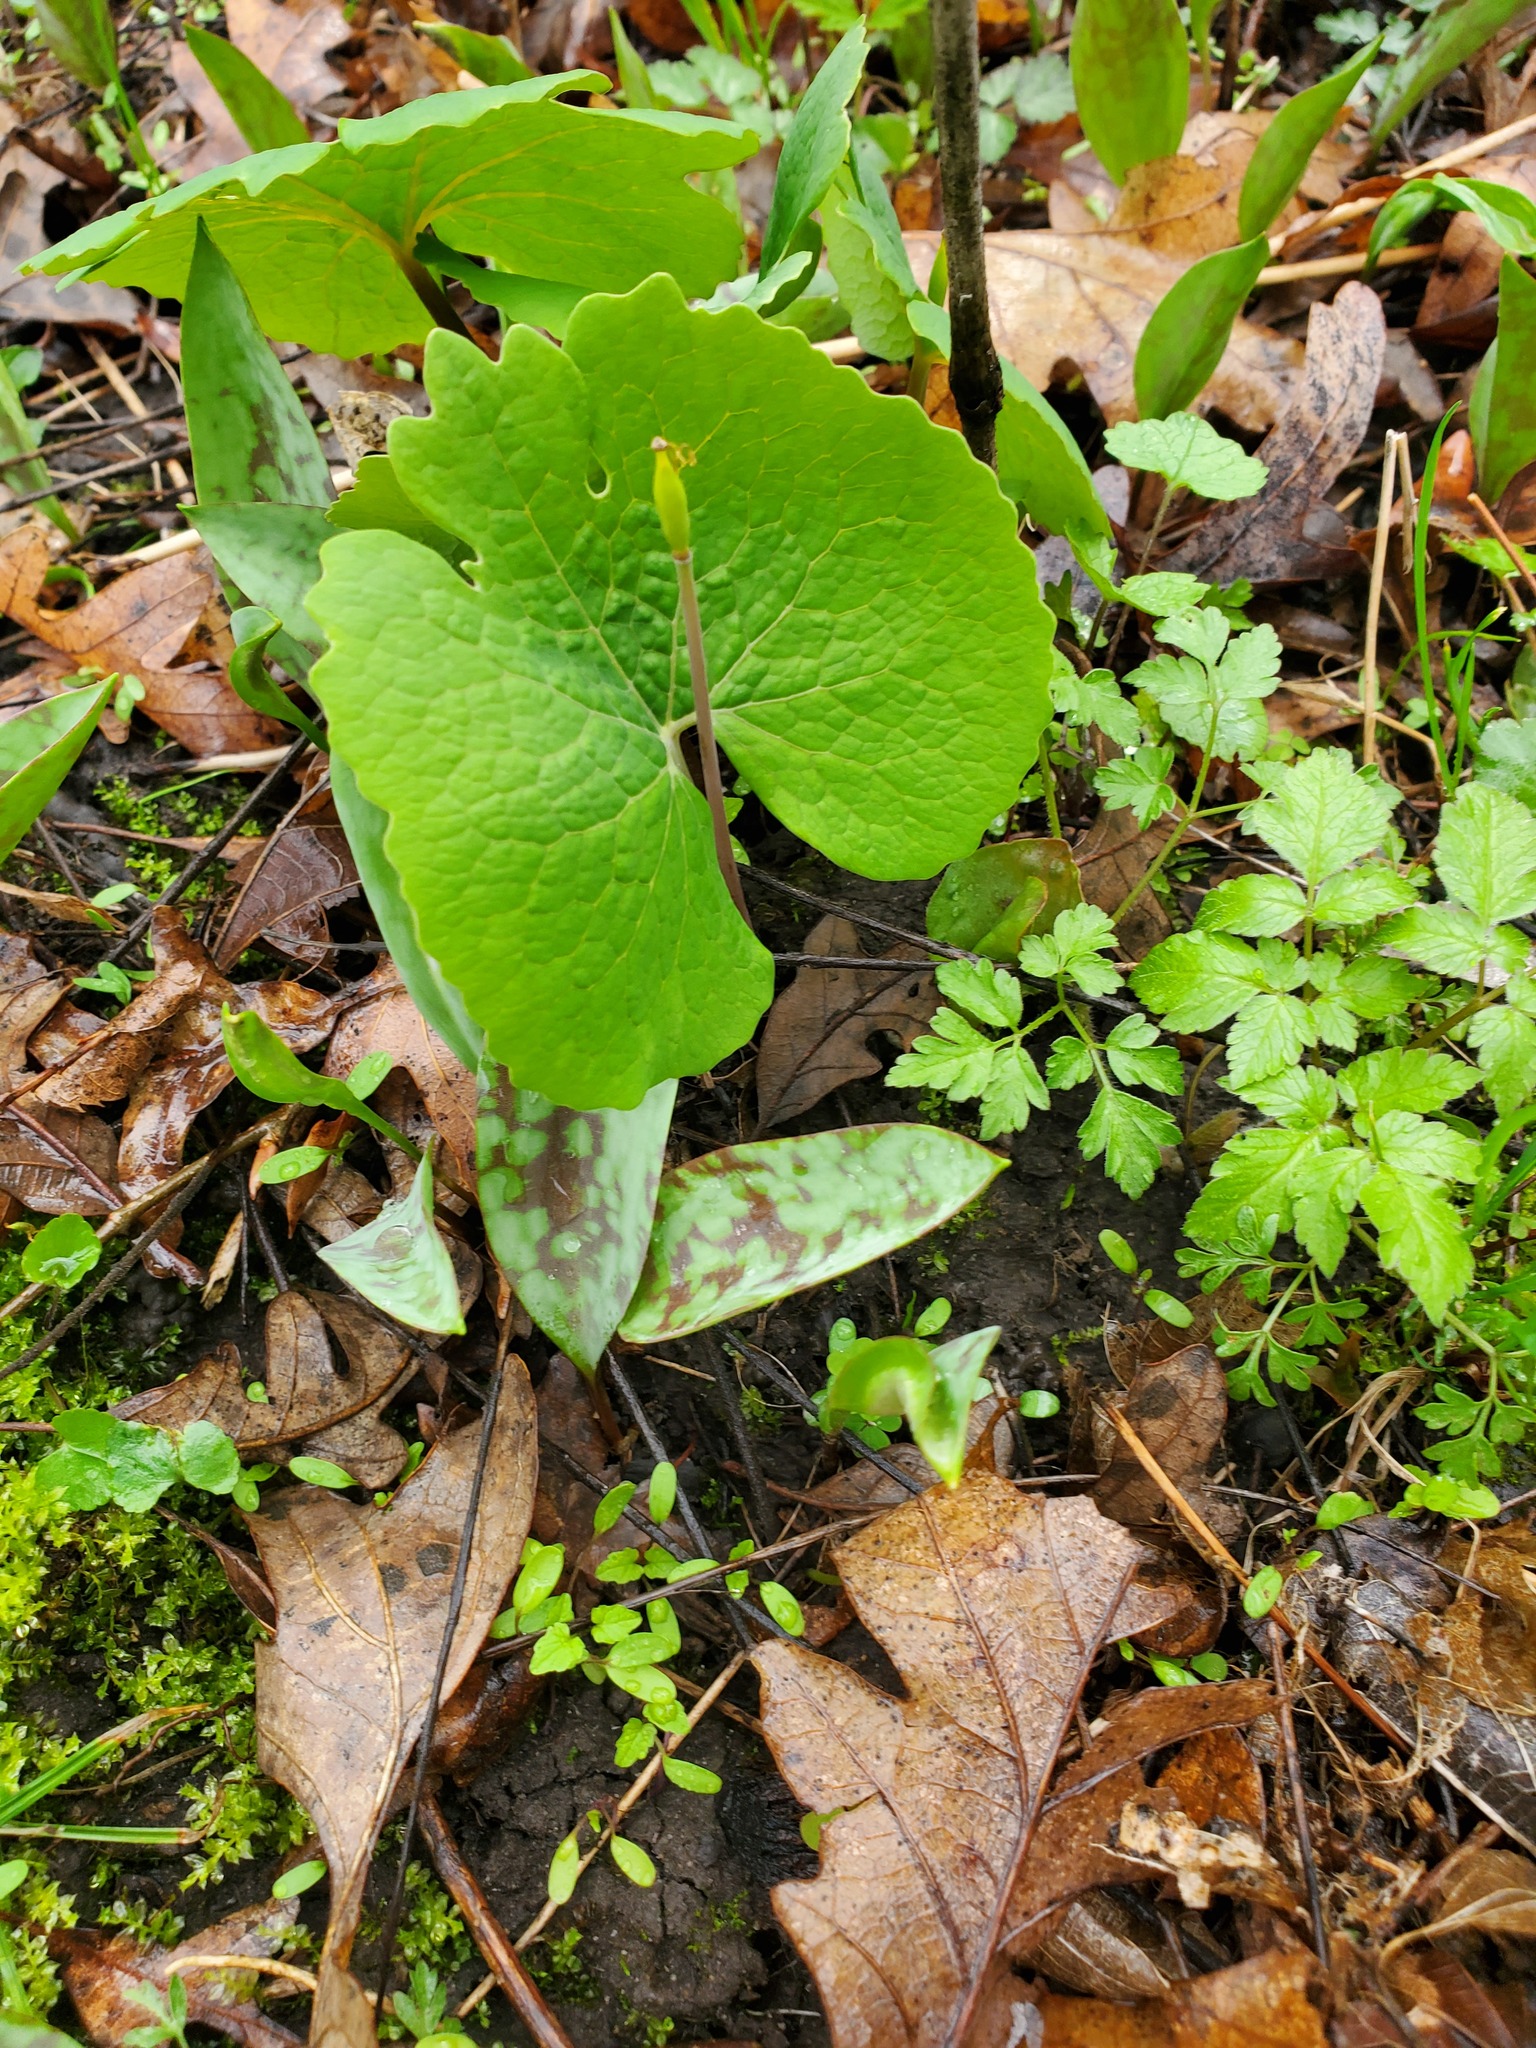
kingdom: Plantae
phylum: Tracheophyta
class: Magnoliopsida
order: Ranunculales
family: Papaveraceae
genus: Sanguinaria
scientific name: Sanguinaria canadensis
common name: Bloodroot
